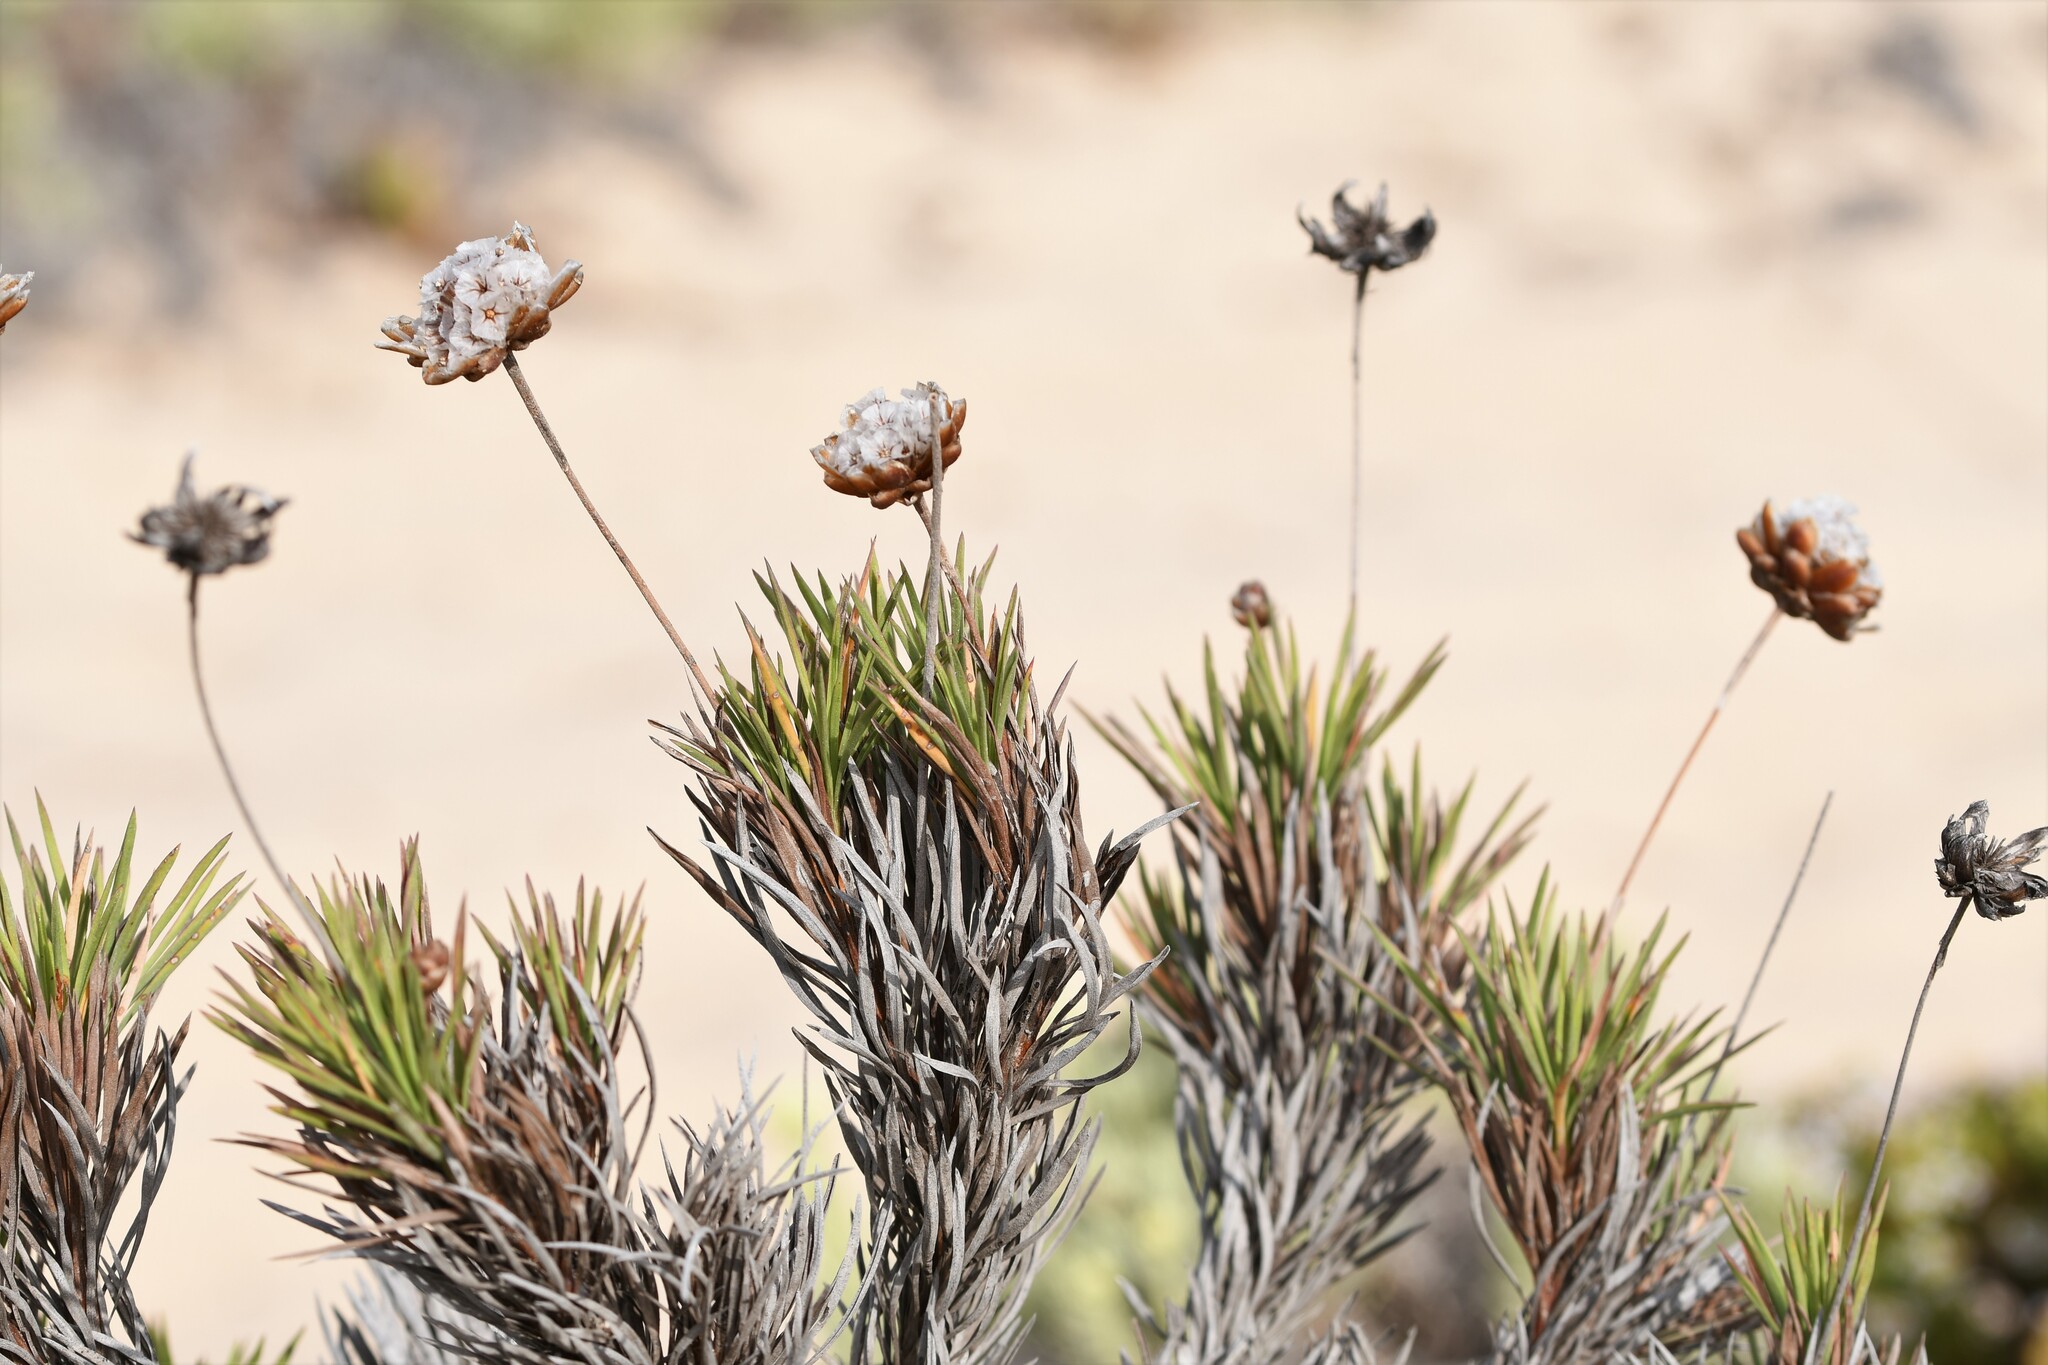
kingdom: Plantae
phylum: Tracheophyta
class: Magnoliopsida
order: Caryophyllales
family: Plumbaginaceae
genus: Armeria
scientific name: Armeria pungens
